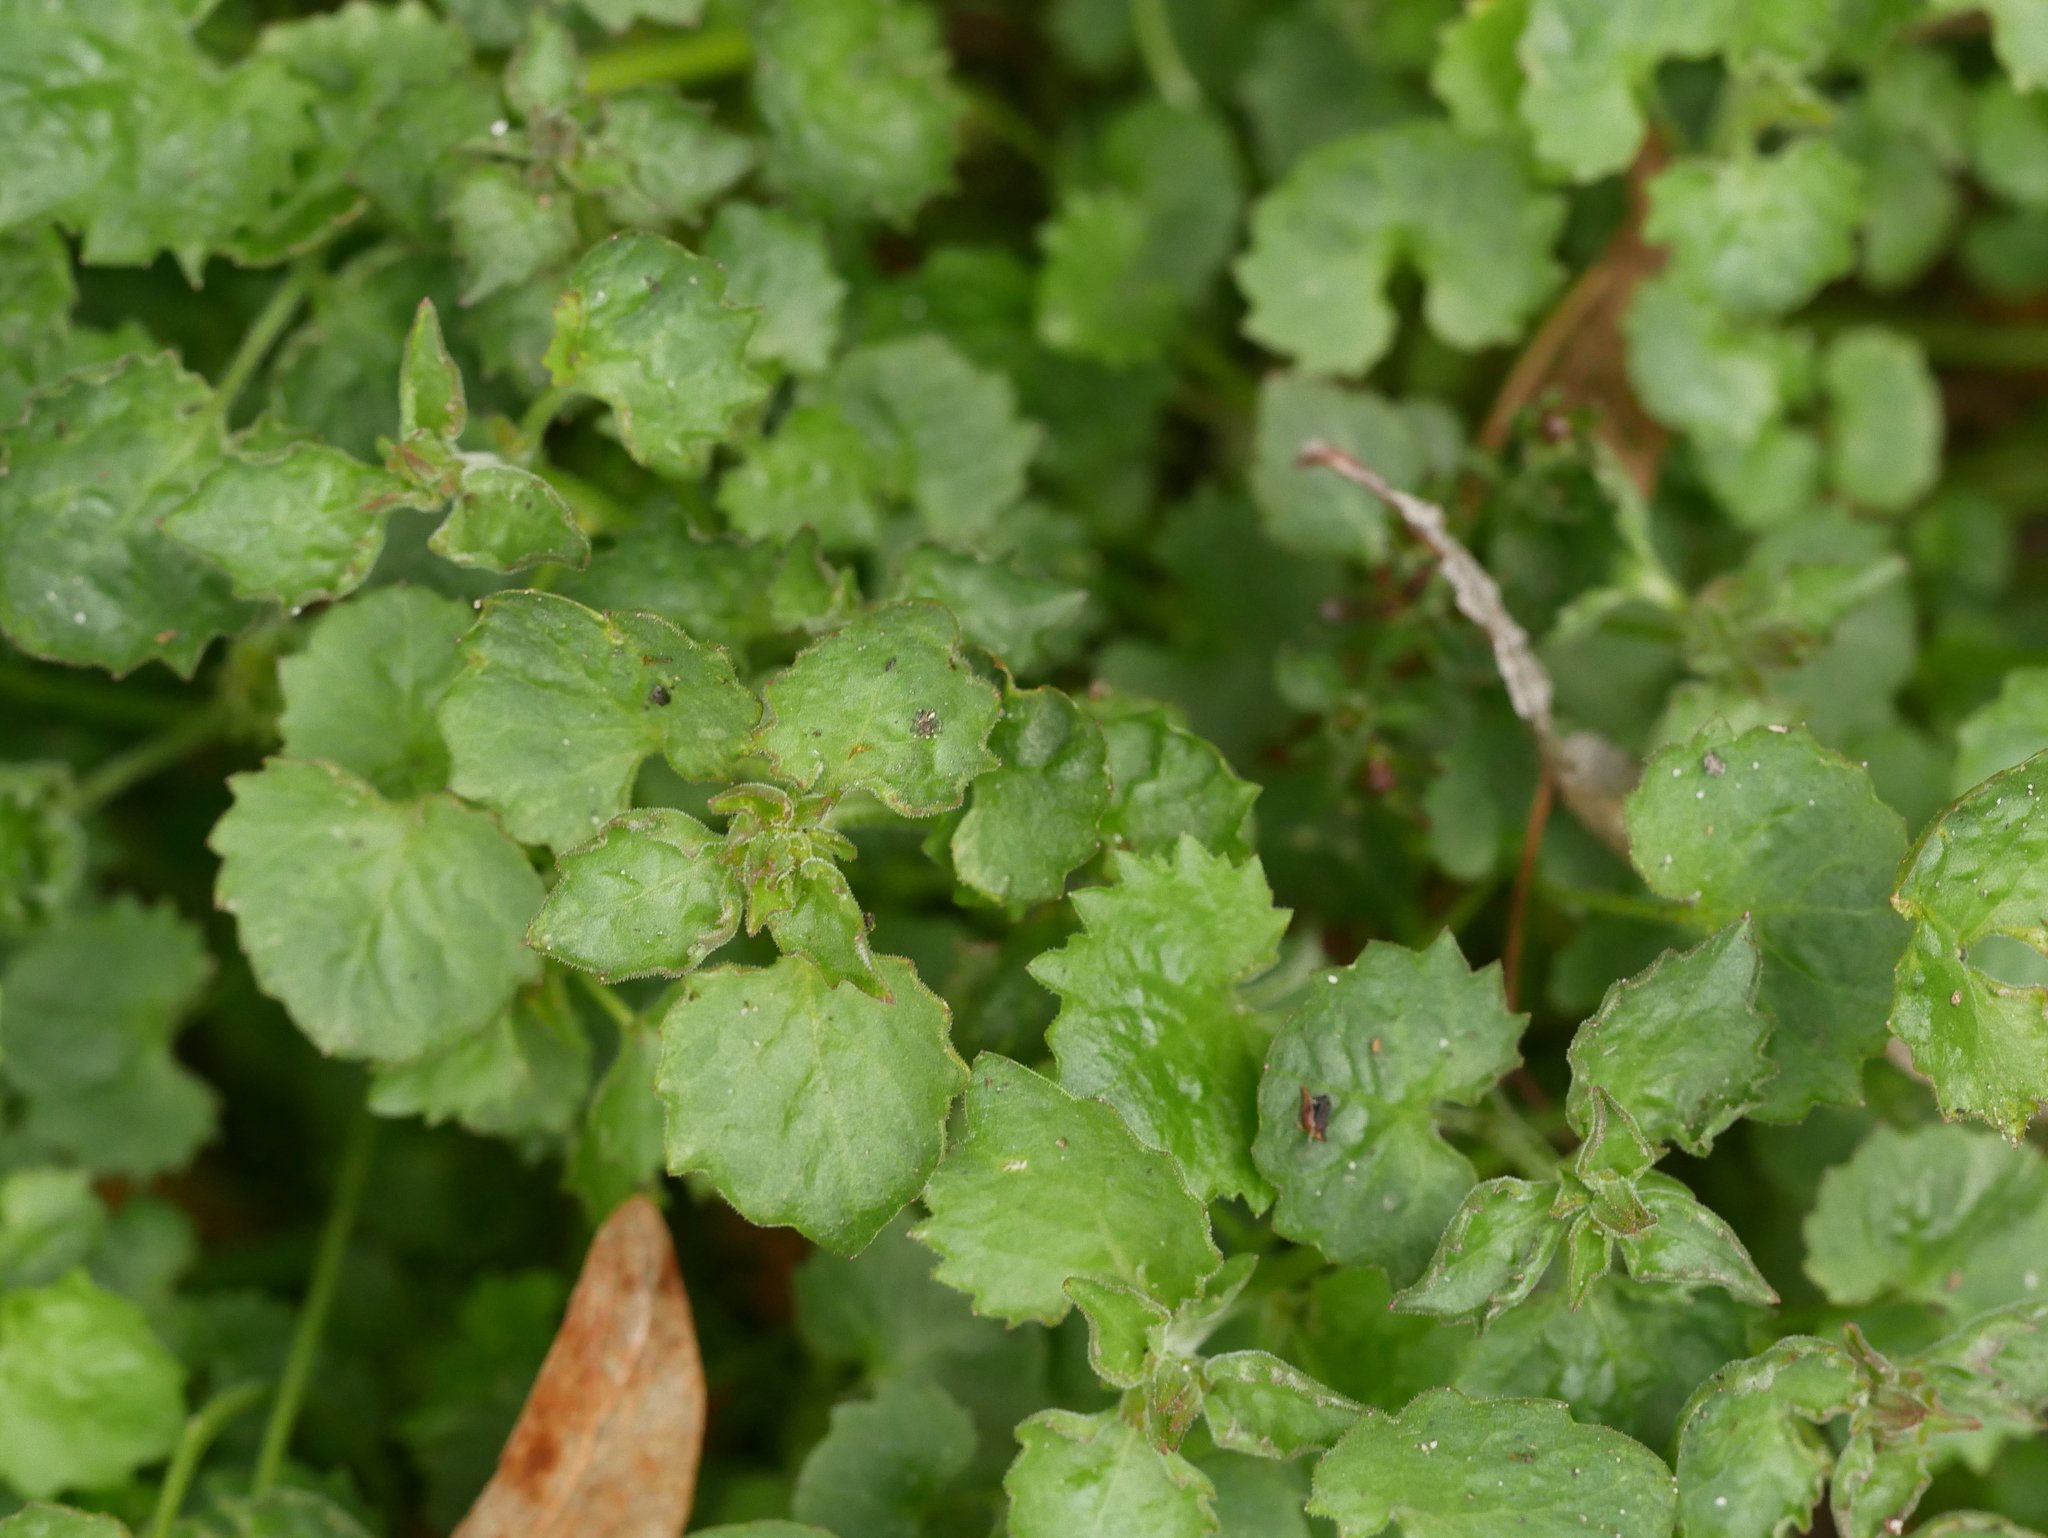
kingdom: Plantae
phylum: Tracheophyta
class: Magnoliopsida
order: Asterales
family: Campanulaceae
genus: Campanula
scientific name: Campanula poscharskyana
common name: Trailing bellflower
